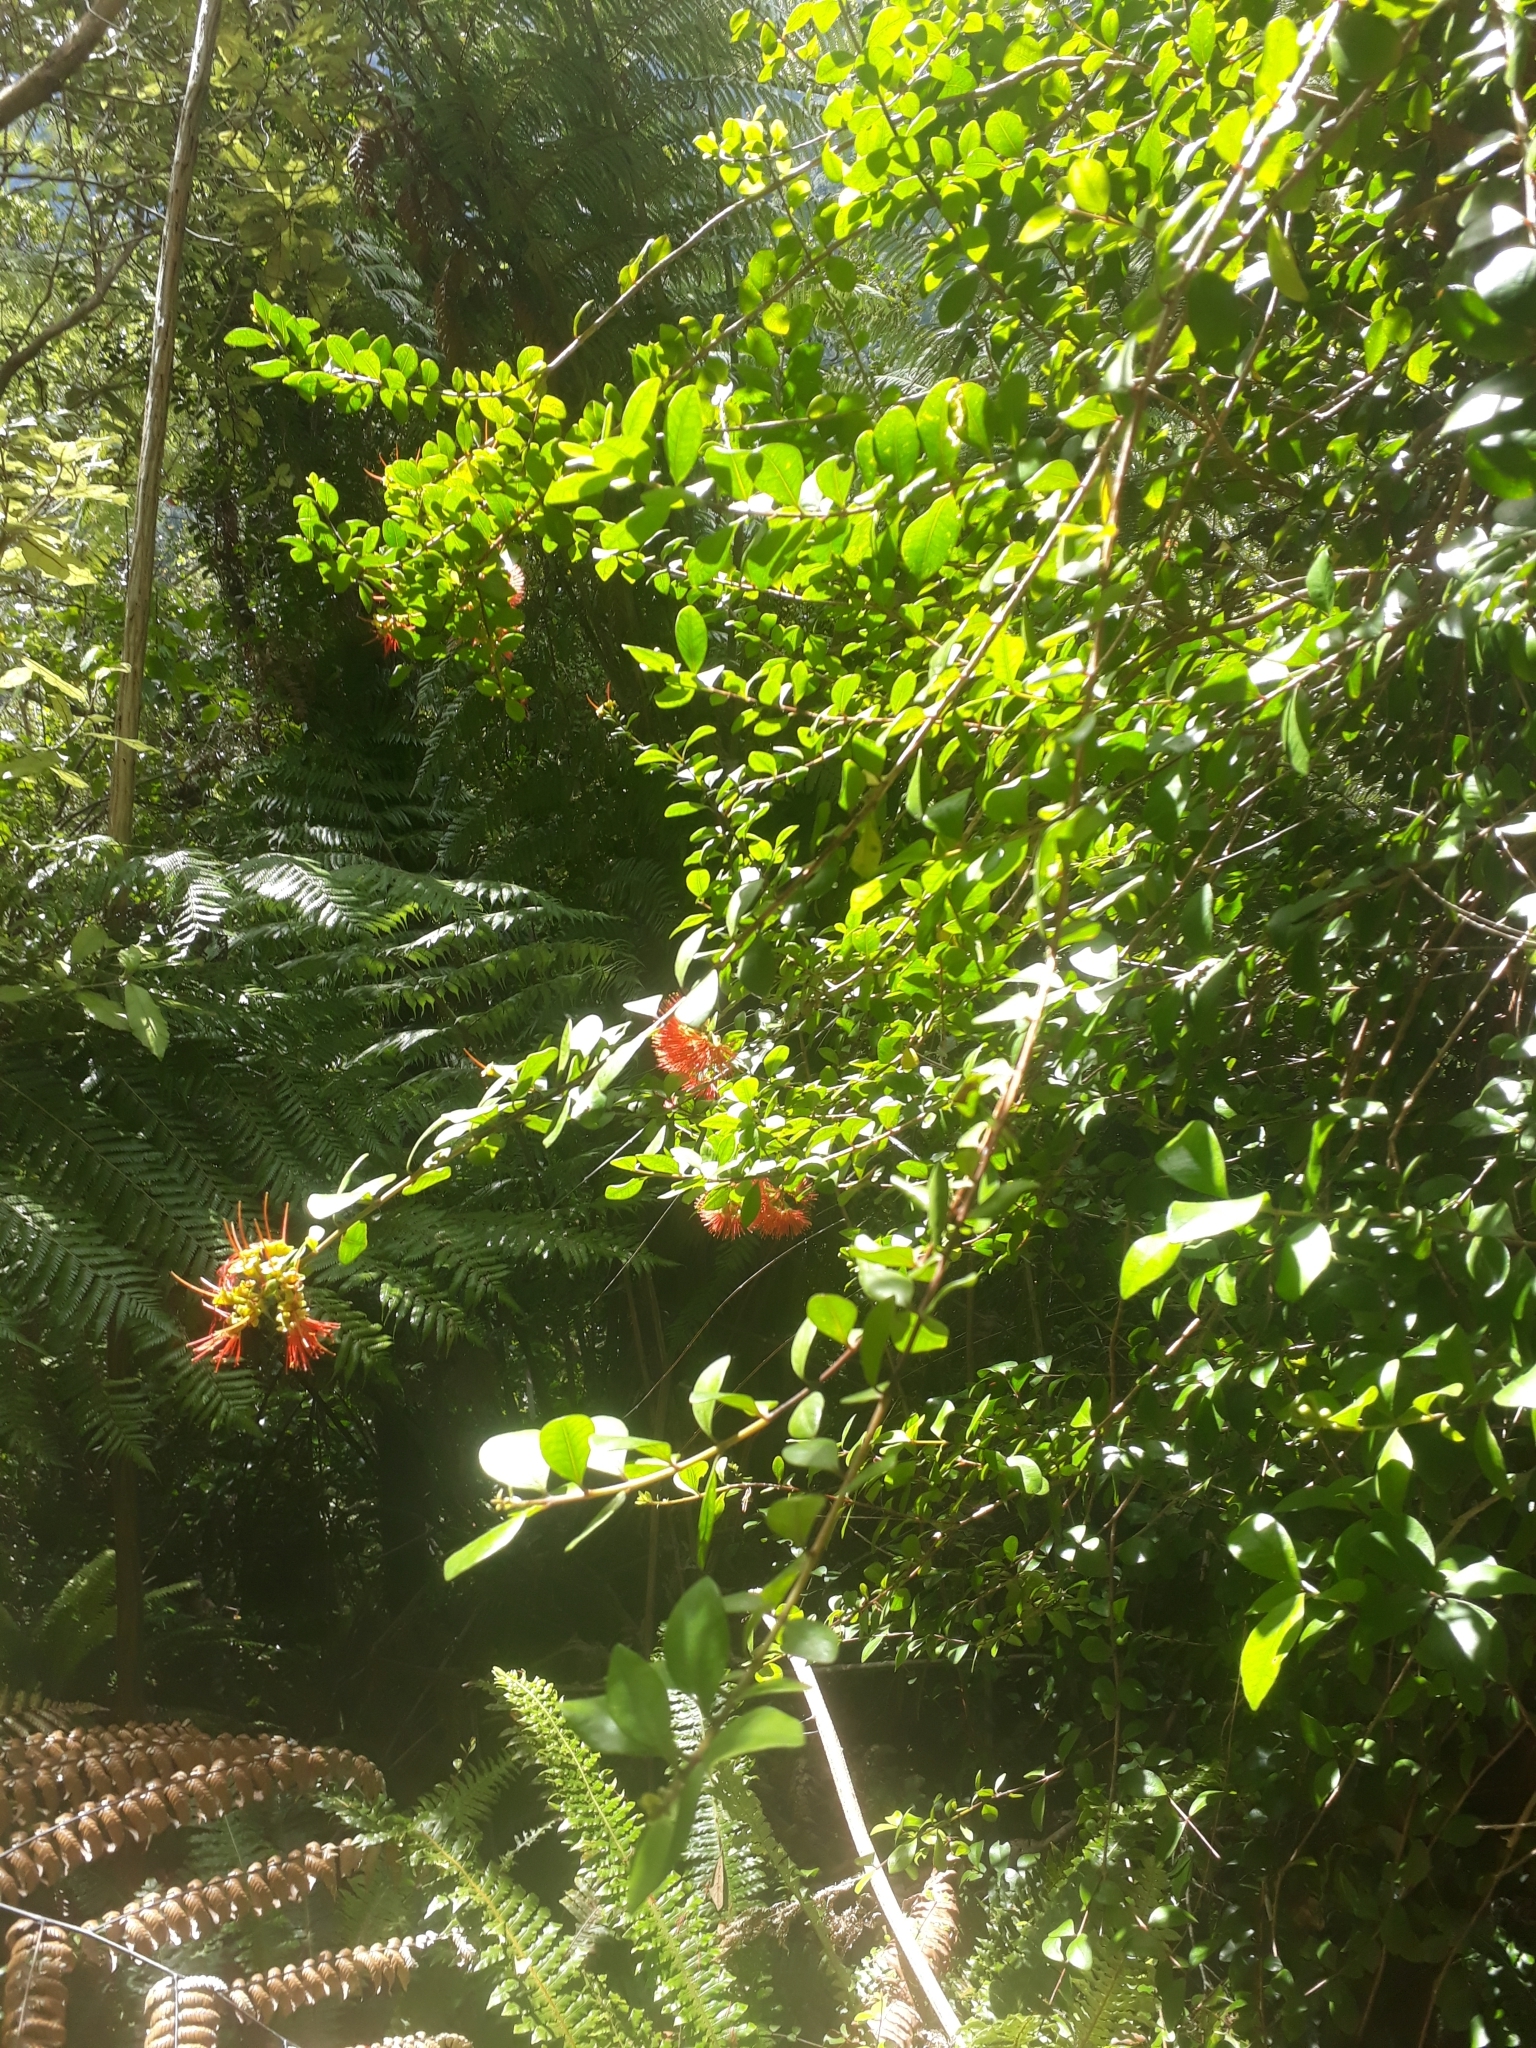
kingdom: Plantae
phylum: Tracheophyta
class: Magnoliopsida
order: Myrtales
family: Myrtaceae
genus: Metrosideros
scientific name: Metrosideros fulgens
